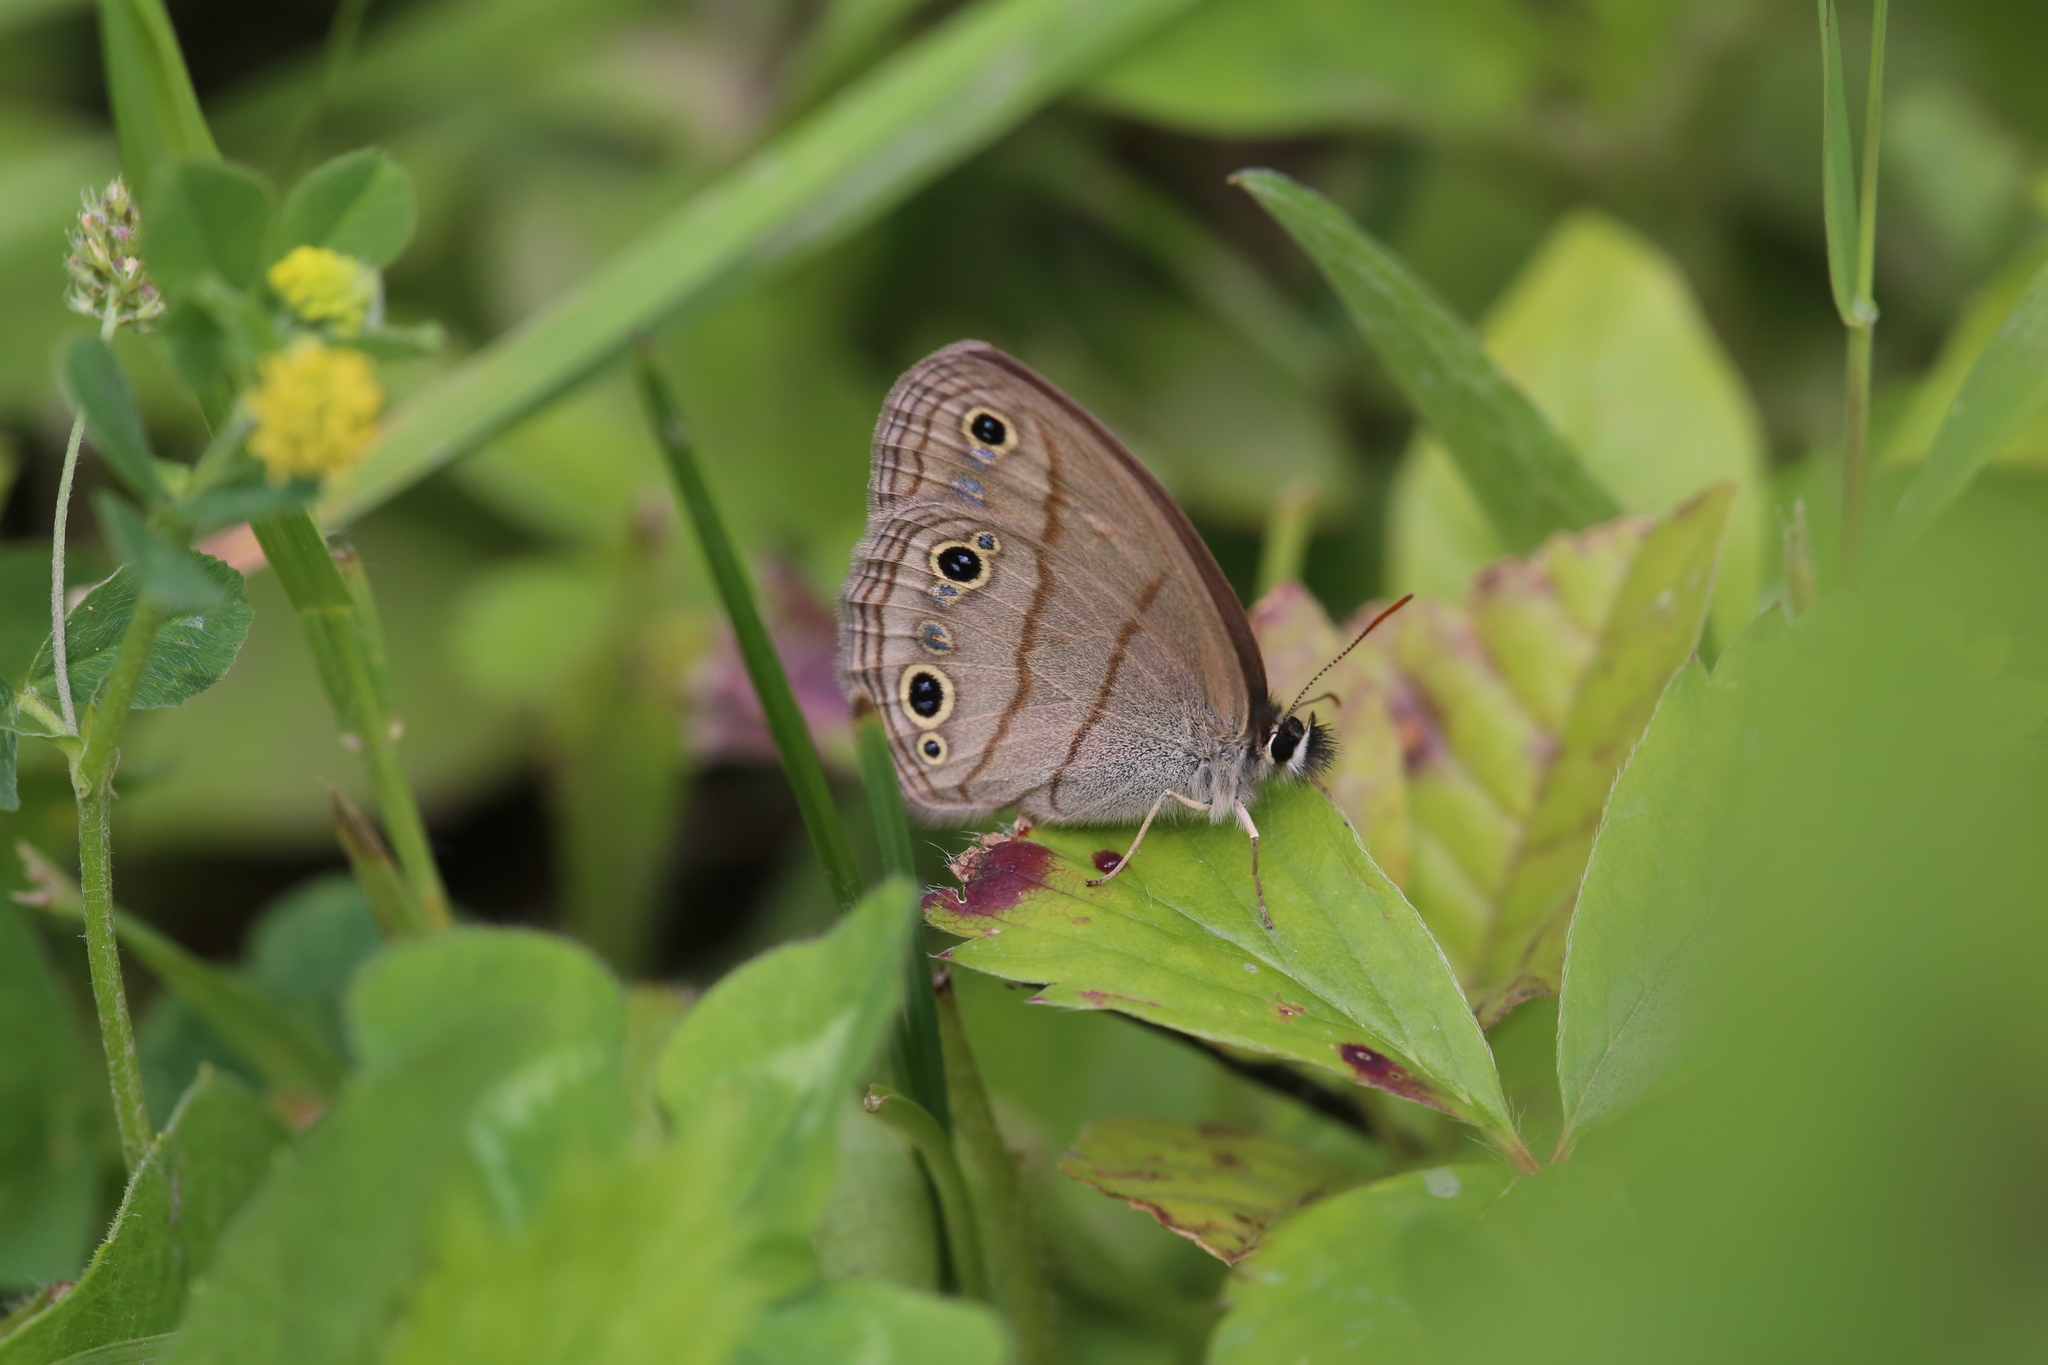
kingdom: Animalia
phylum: Arthropoda
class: Insecta
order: Lepidoptera
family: Nymphalidae
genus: Euptychia
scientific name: Euptychia cymela
